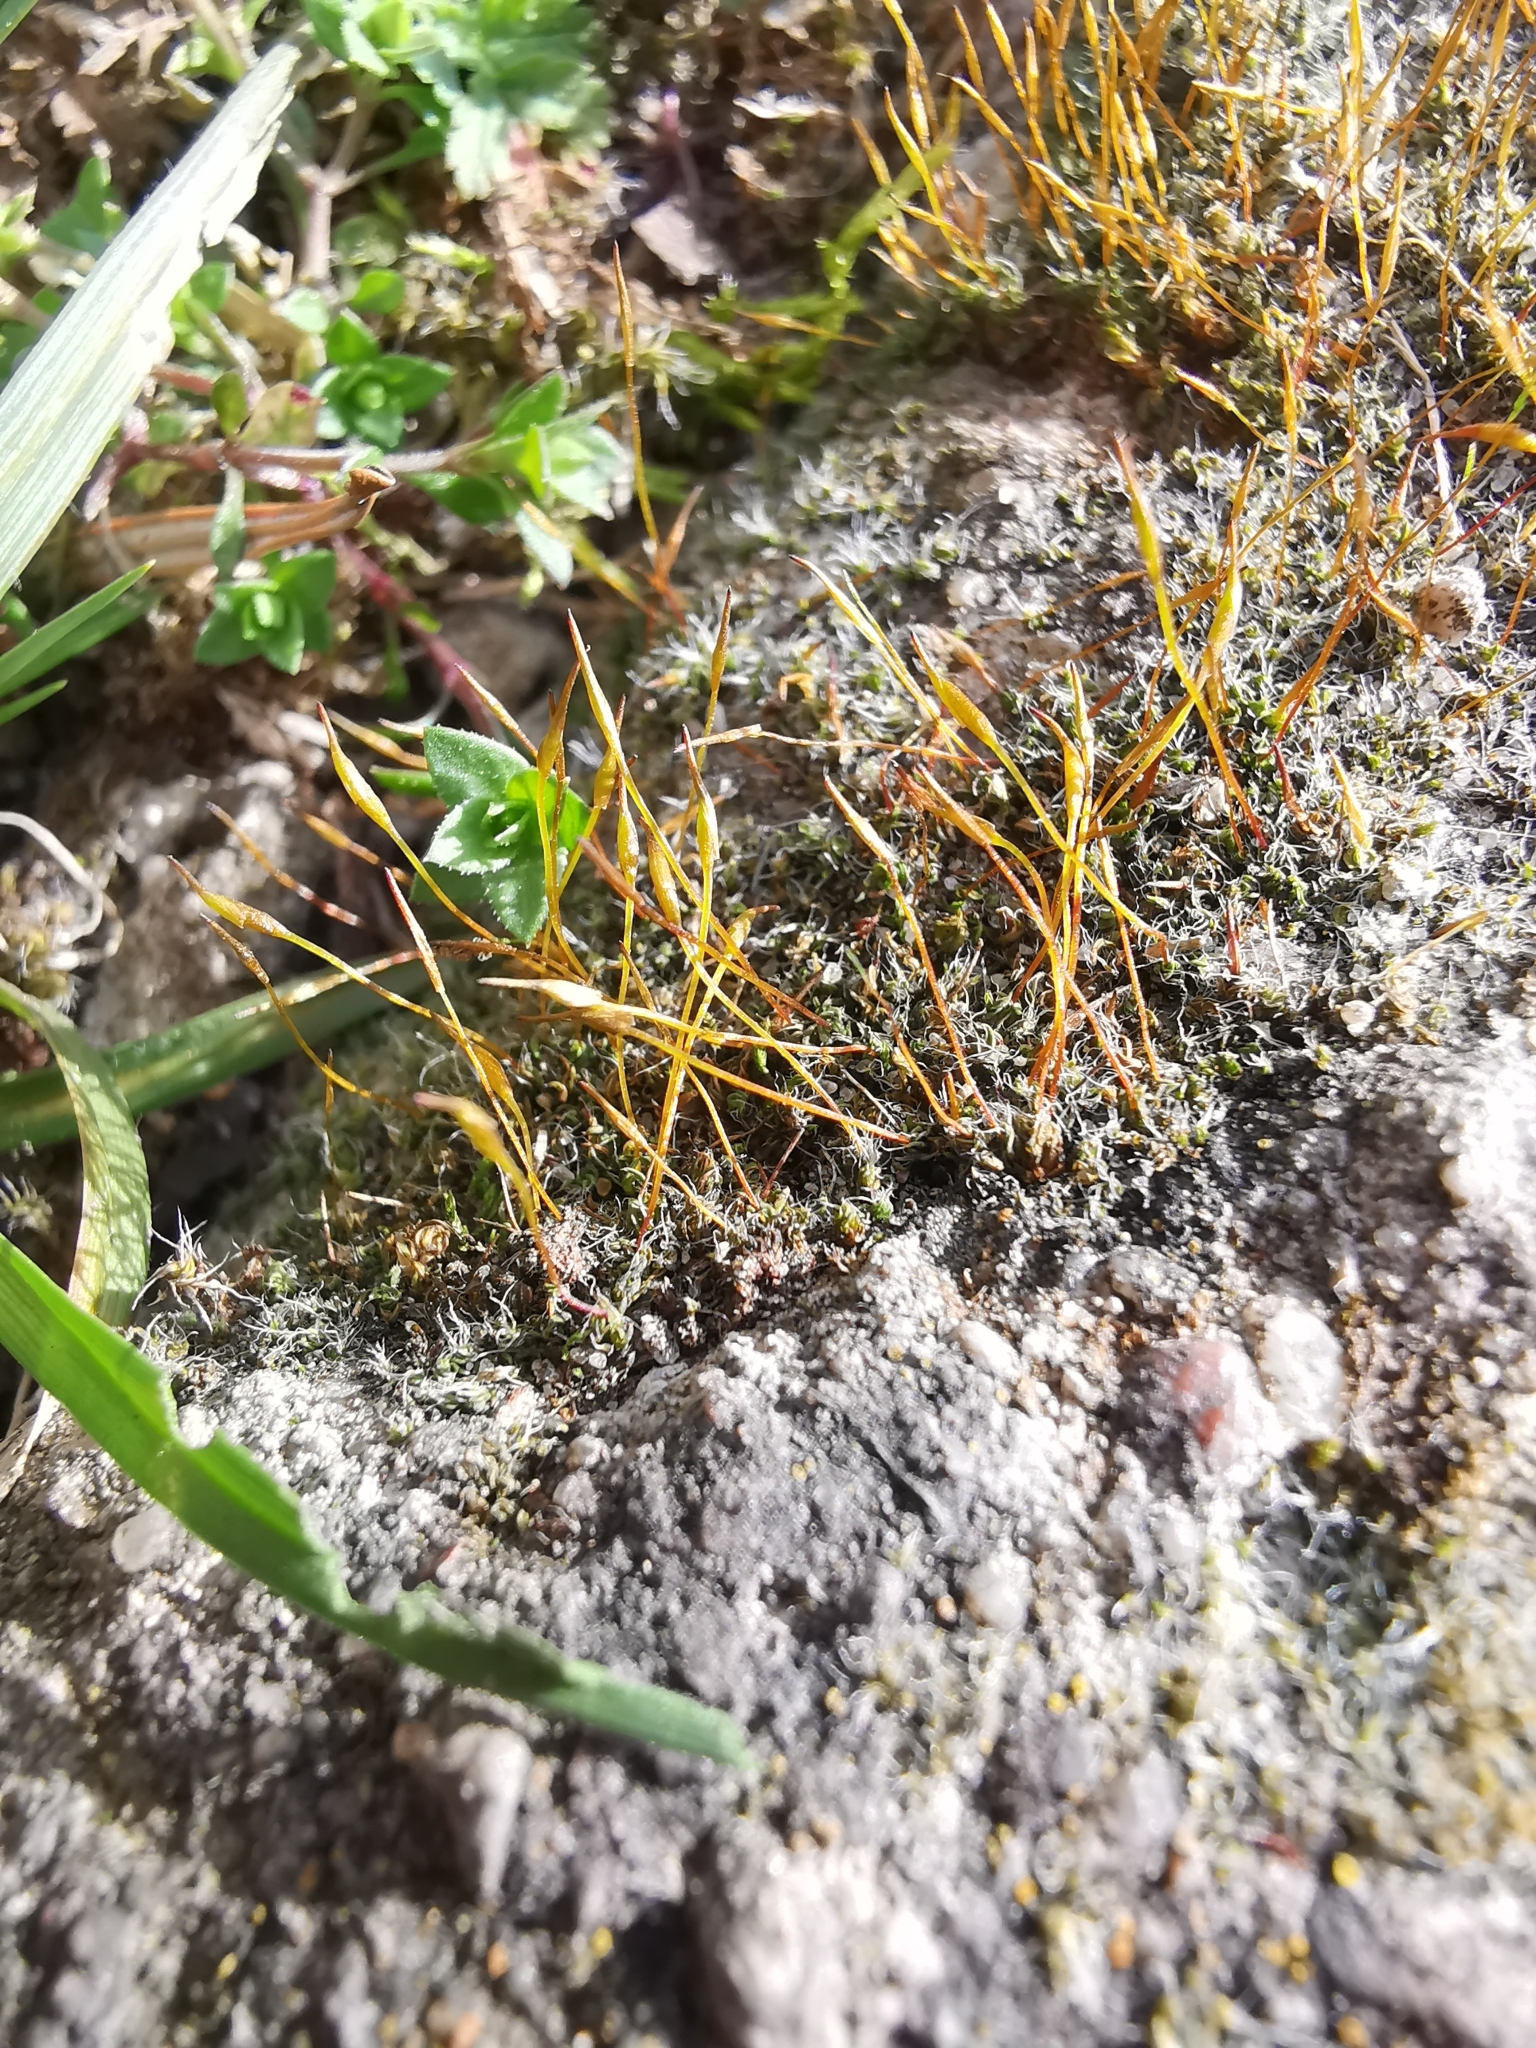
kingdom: Plantae
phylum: Bryophyta
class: Bryopsida
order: Pottiales
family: Pottiaceae
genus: Tortula
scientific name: Tortula muralis
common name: Wall screw-moss
